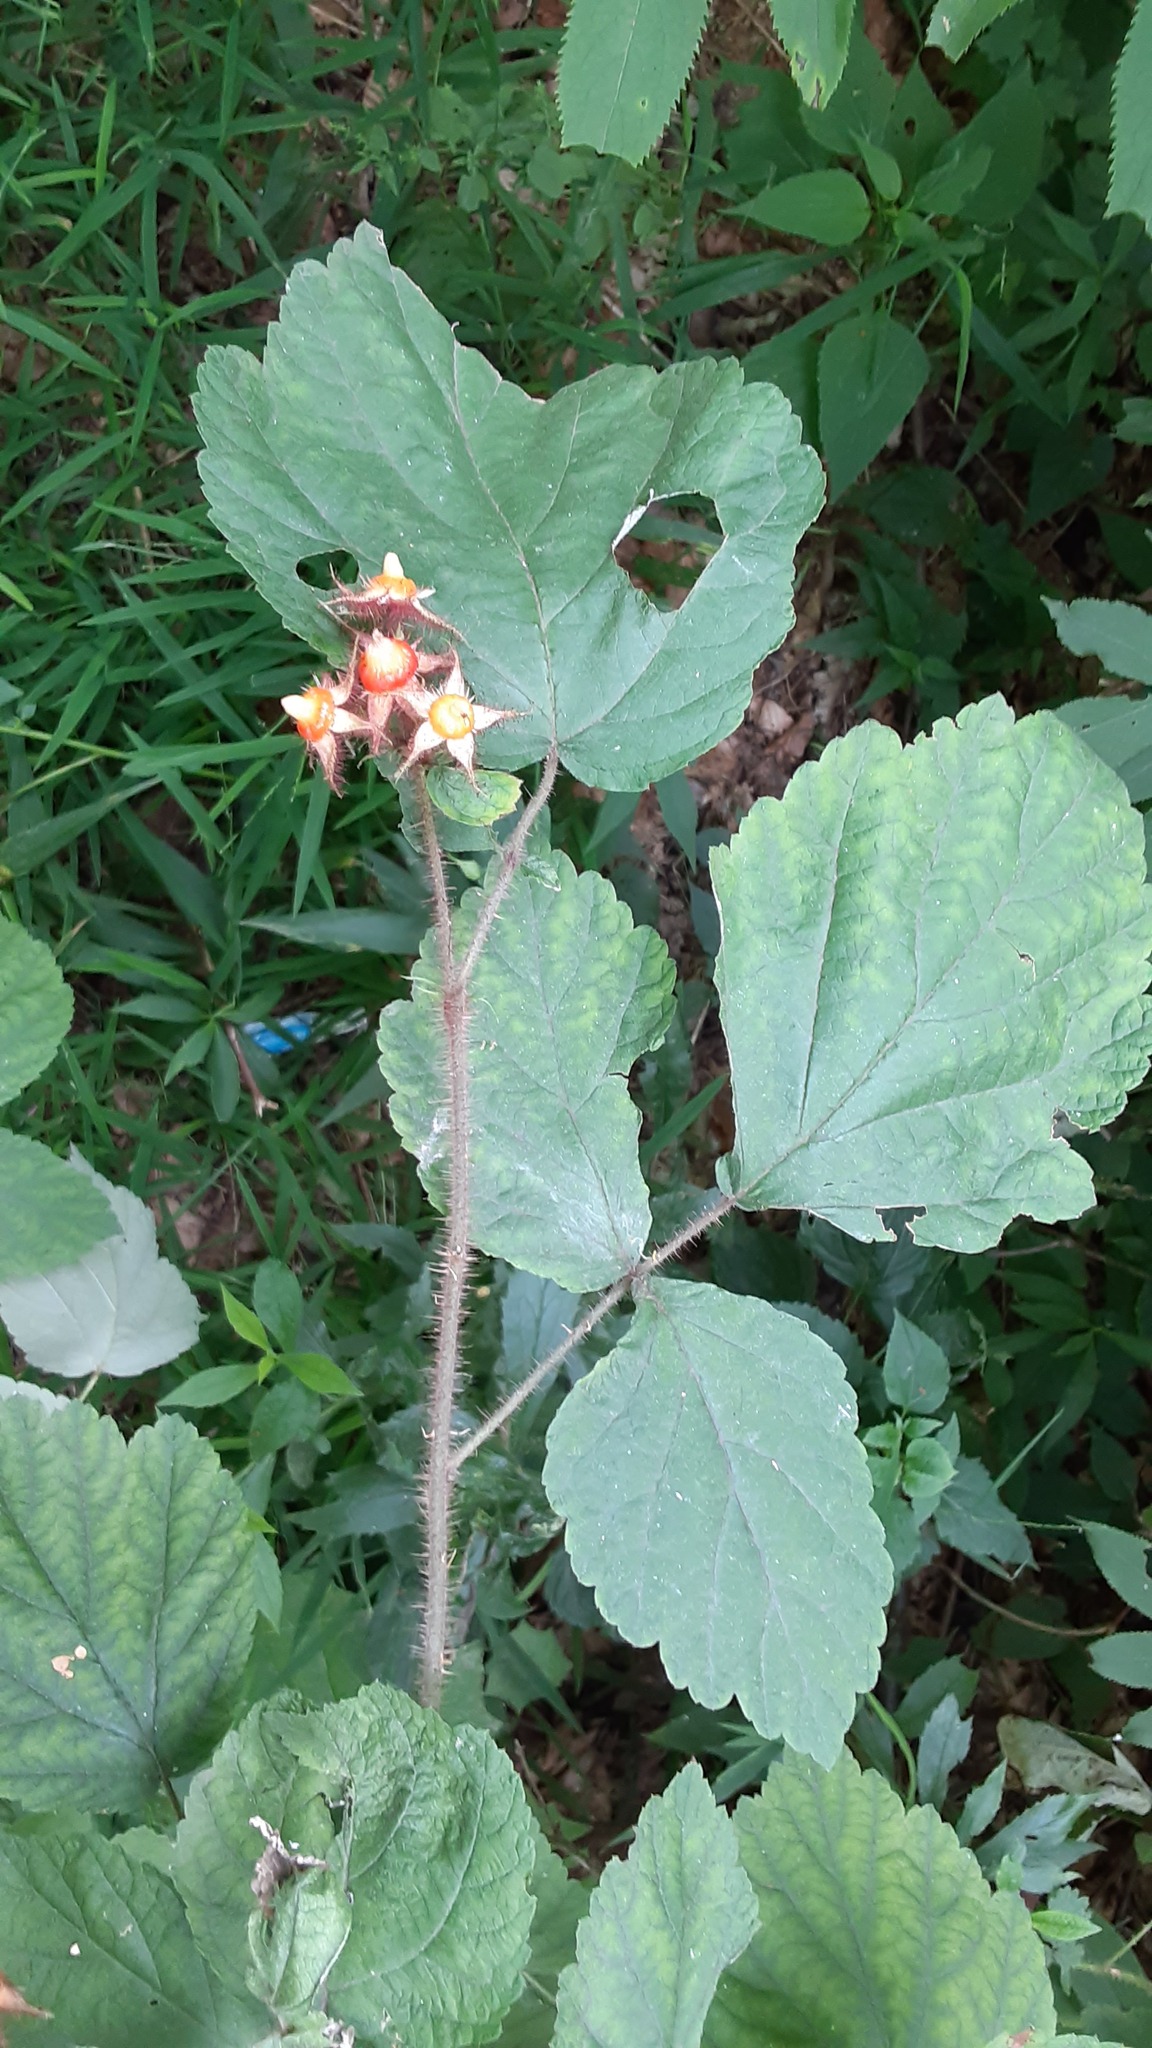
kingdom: Plantae
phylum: Tracheophyta
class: Magnoliopsida
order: Rosales
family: Rosaceae
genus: Rubus
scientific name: Rubus phoenicolasius
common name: Japanese wineberry
